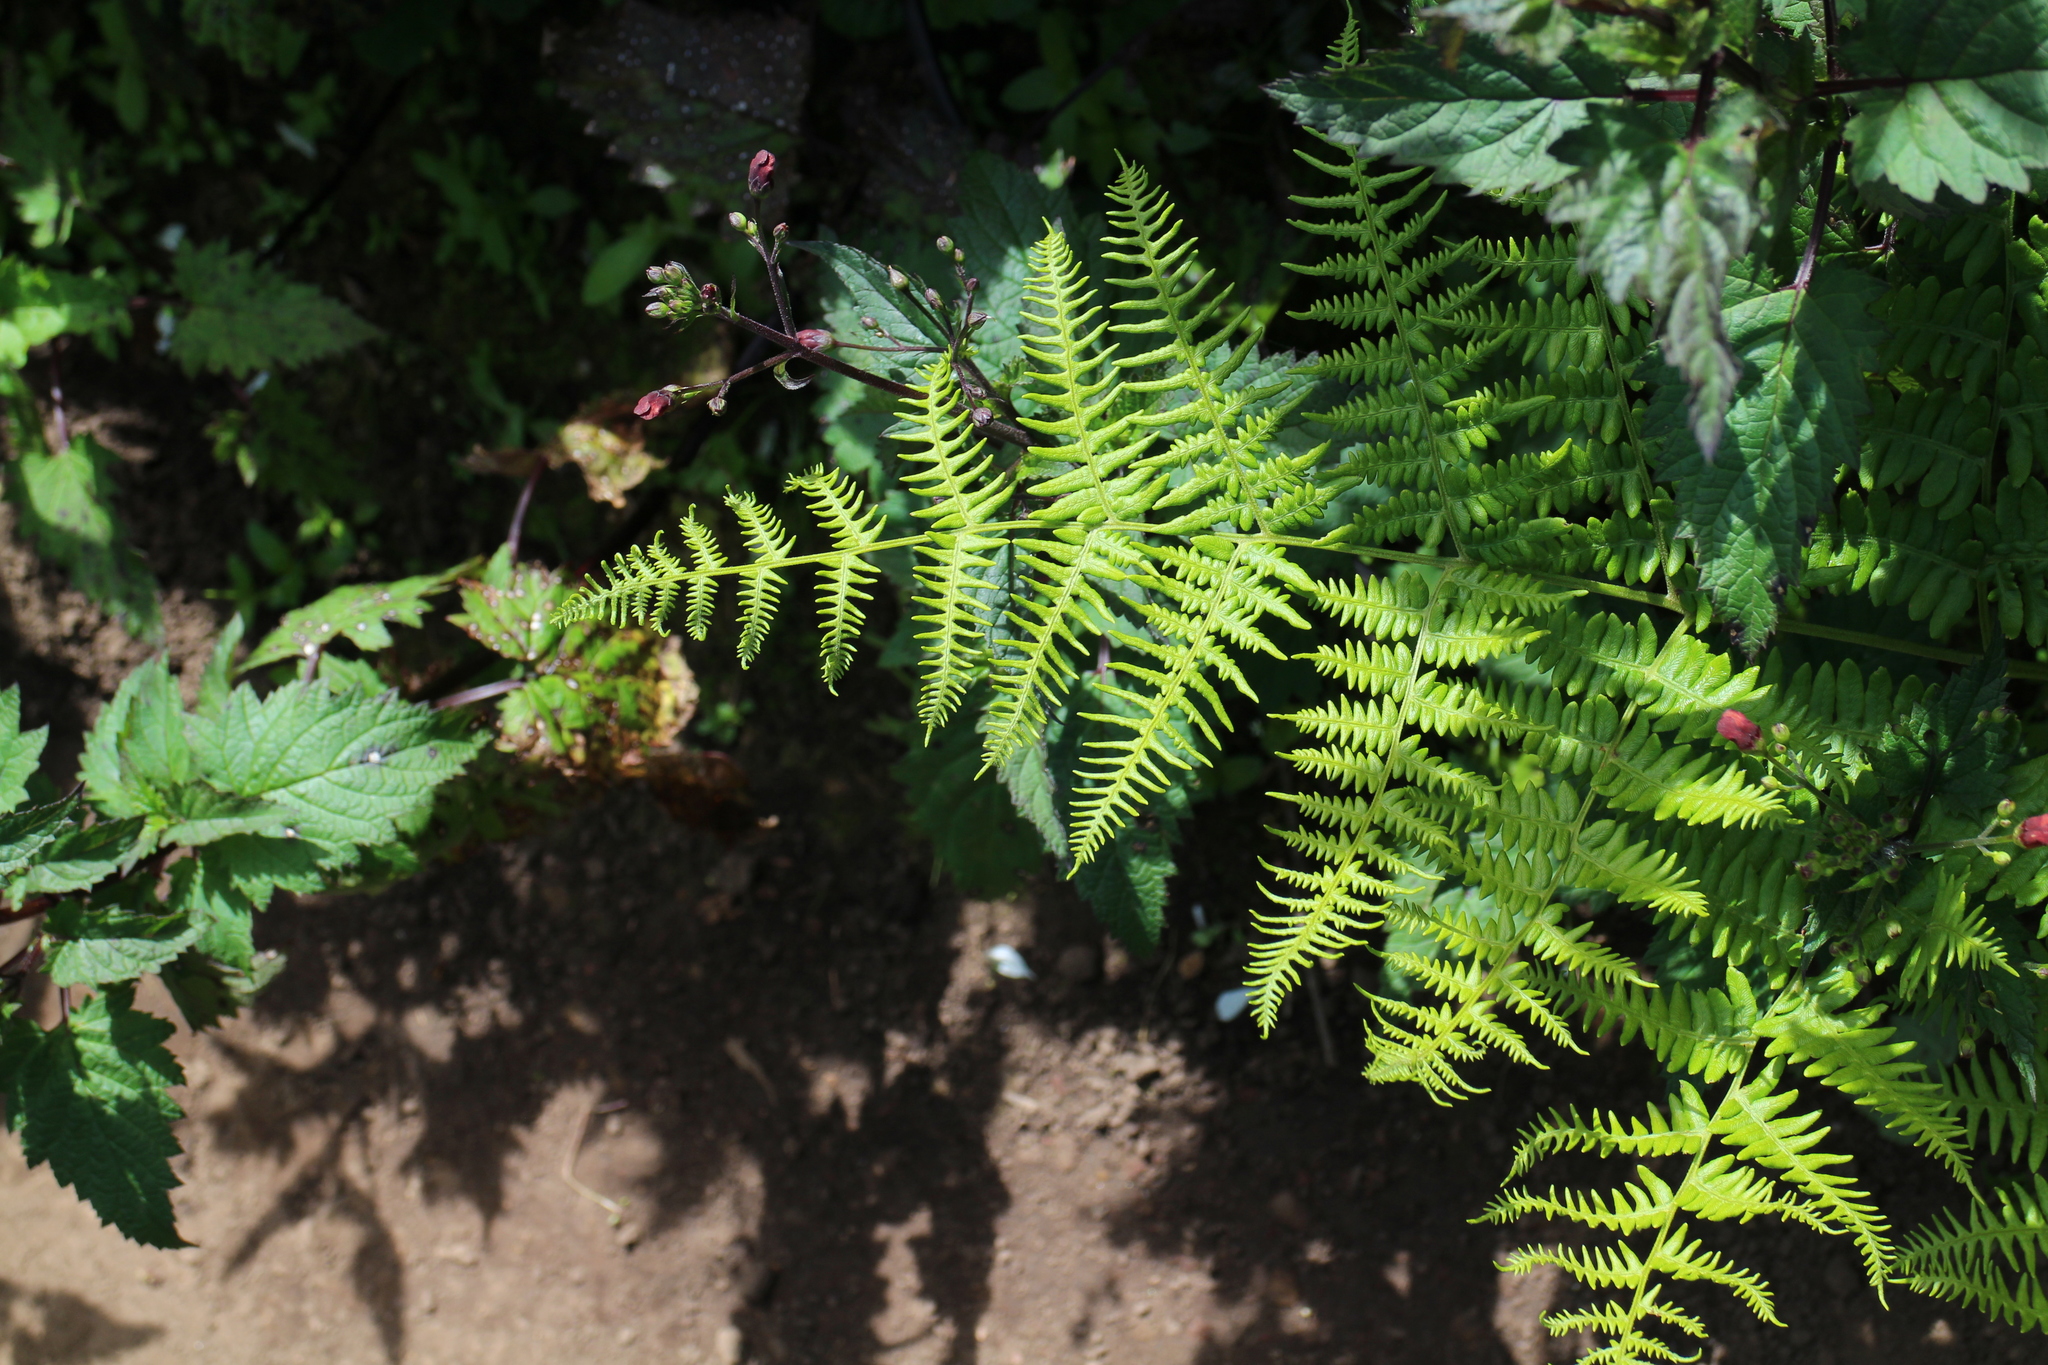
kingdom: Plantae
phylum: Tracheophyta
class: Polypodiopsida
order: Polypodiales
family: Dennstaedtiaceae
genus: Pteridium
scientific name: Pteridium aquilinum
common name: Bracken
